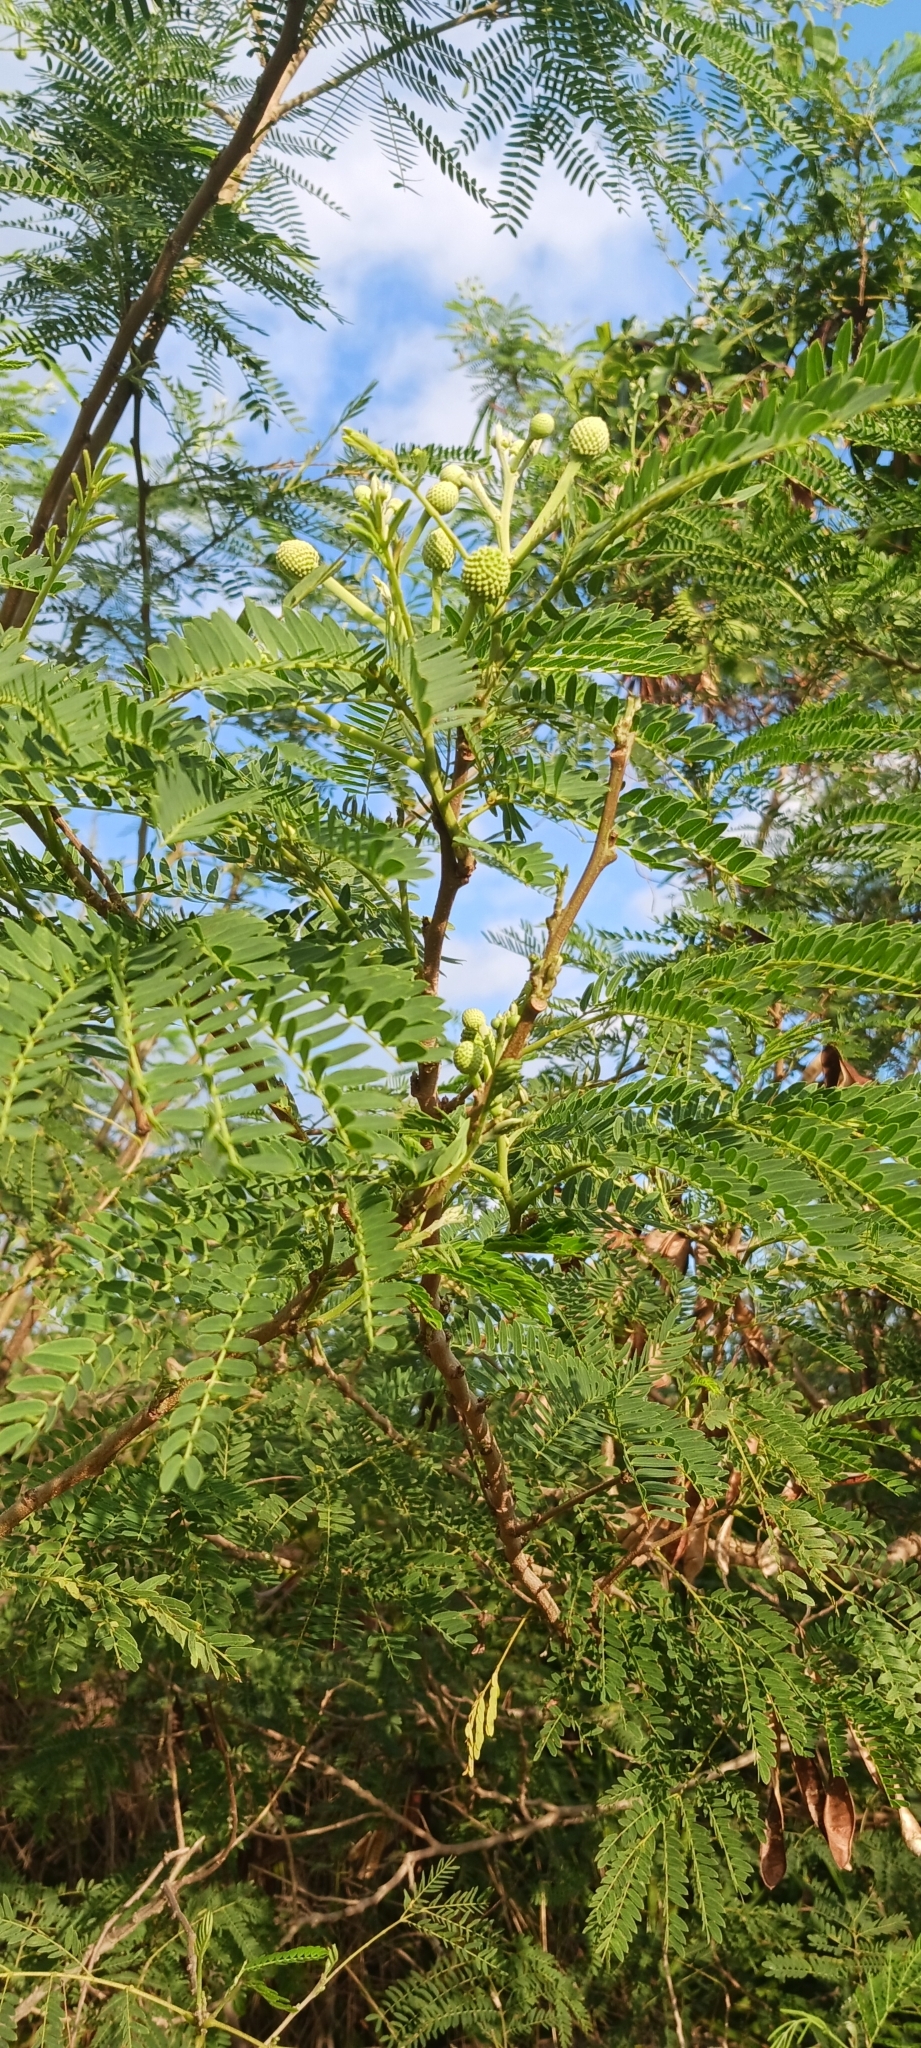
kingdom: Plantae
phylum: Tracheophyta
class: Magnoliopsida
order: Fabales
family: Fabaceae
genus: Leucaena
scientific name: Leucaena leucocephala
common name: White leadtree
